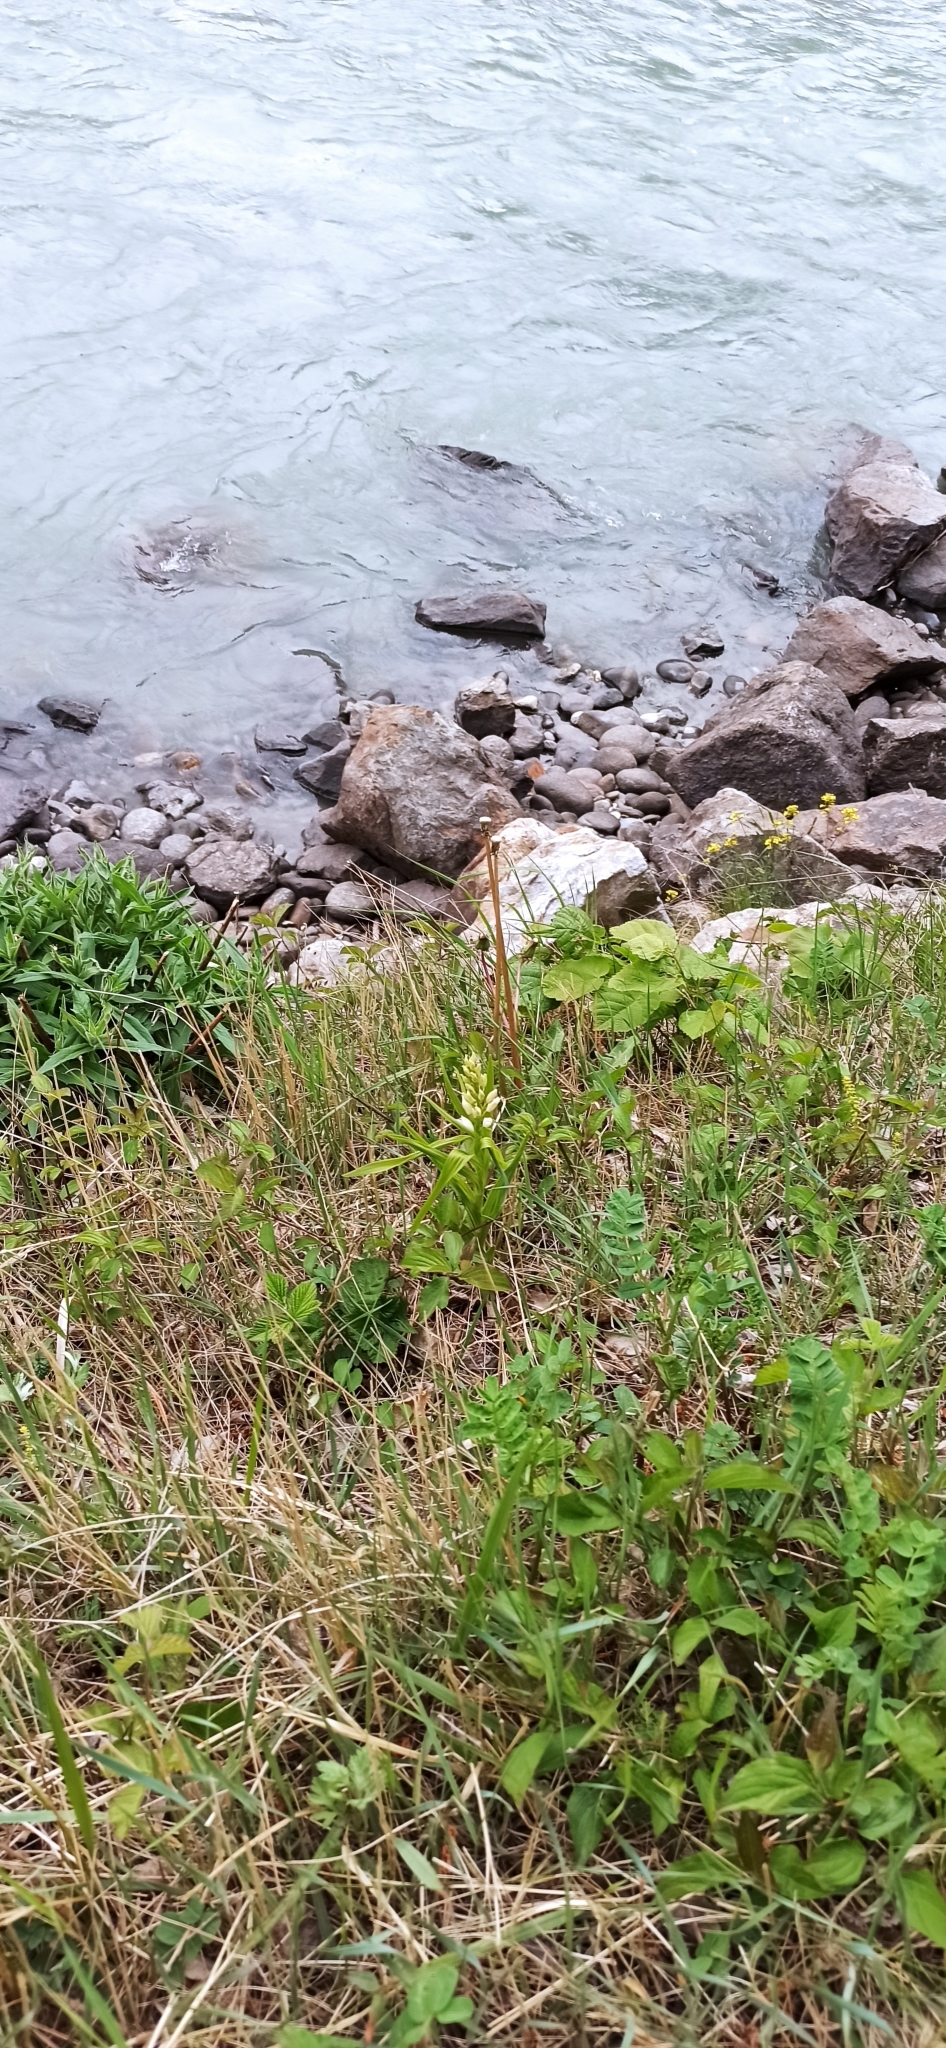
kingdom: Plantae
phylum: Tracheophyta
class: Liliopsida
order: Asparagales
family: Orchidaceae
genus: Cephalanthera
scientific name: Cephalanthera longifolia
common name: Narrow-leaved helleborine
